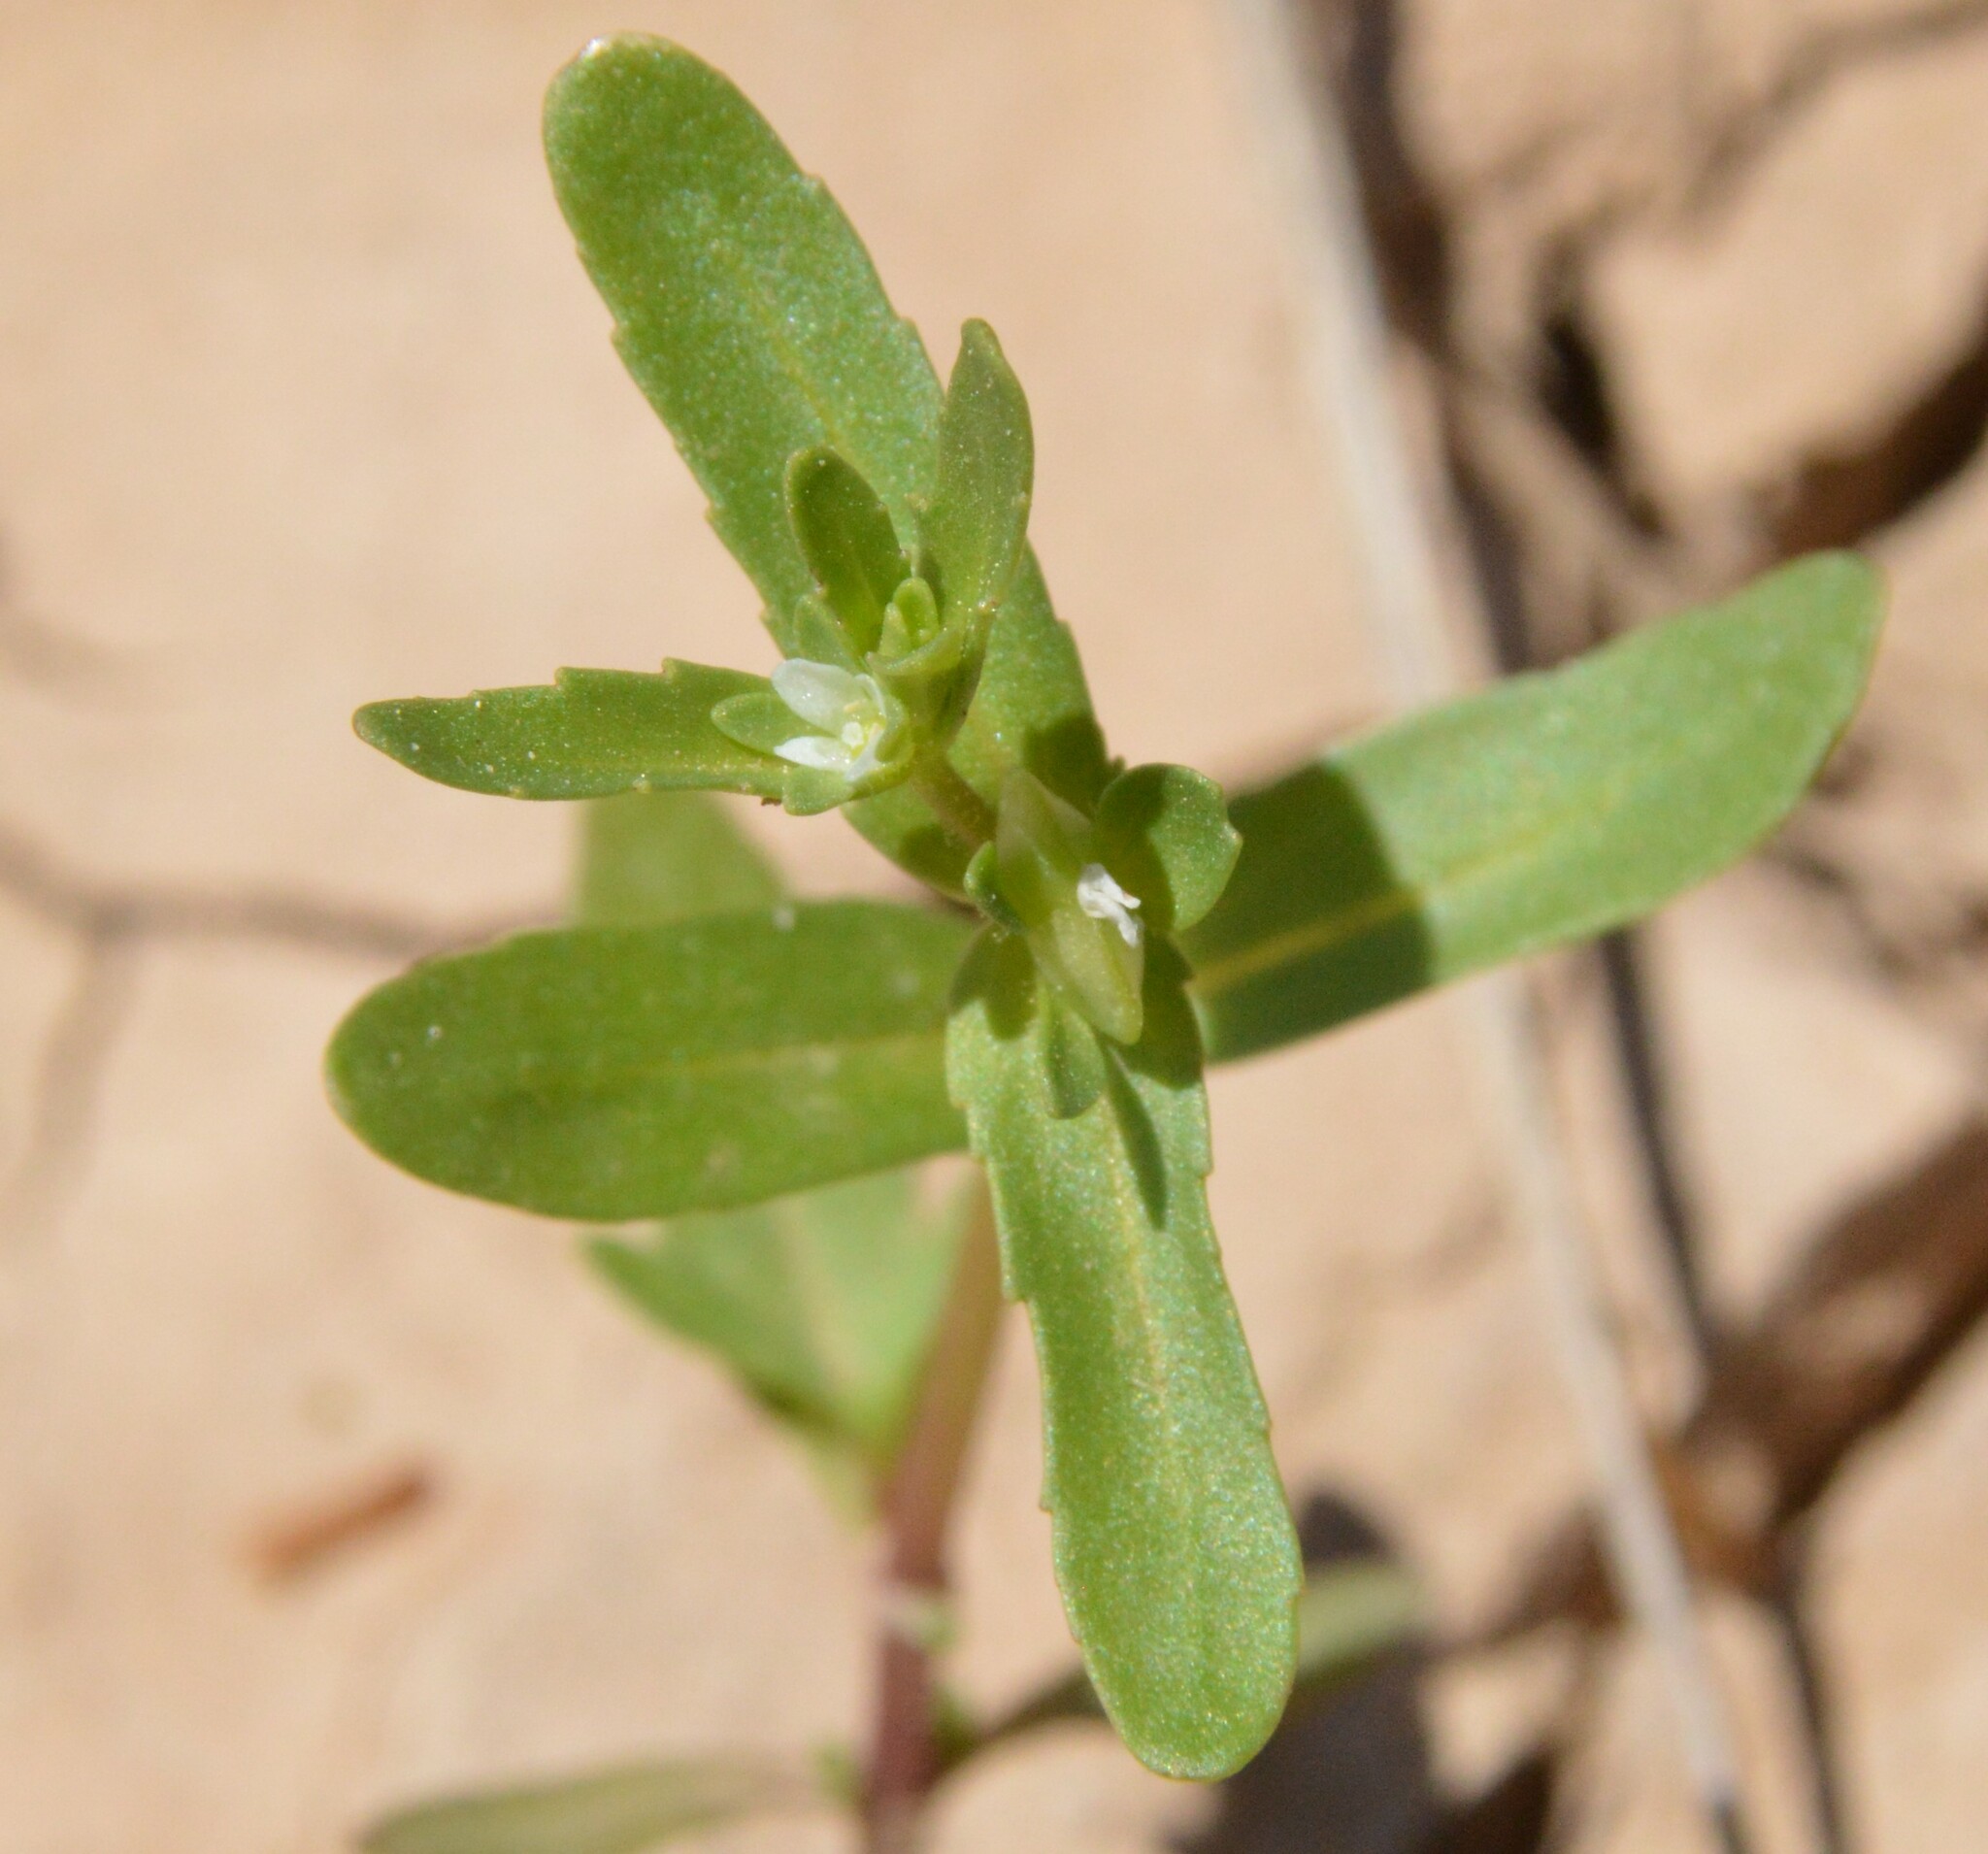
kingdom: Plantae
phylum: Tracheophyta
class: Magnoliopsida
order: Lamiales
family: Plantaginaceae
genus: Veronica
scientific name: Veronica peregrina
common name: Neckweed
